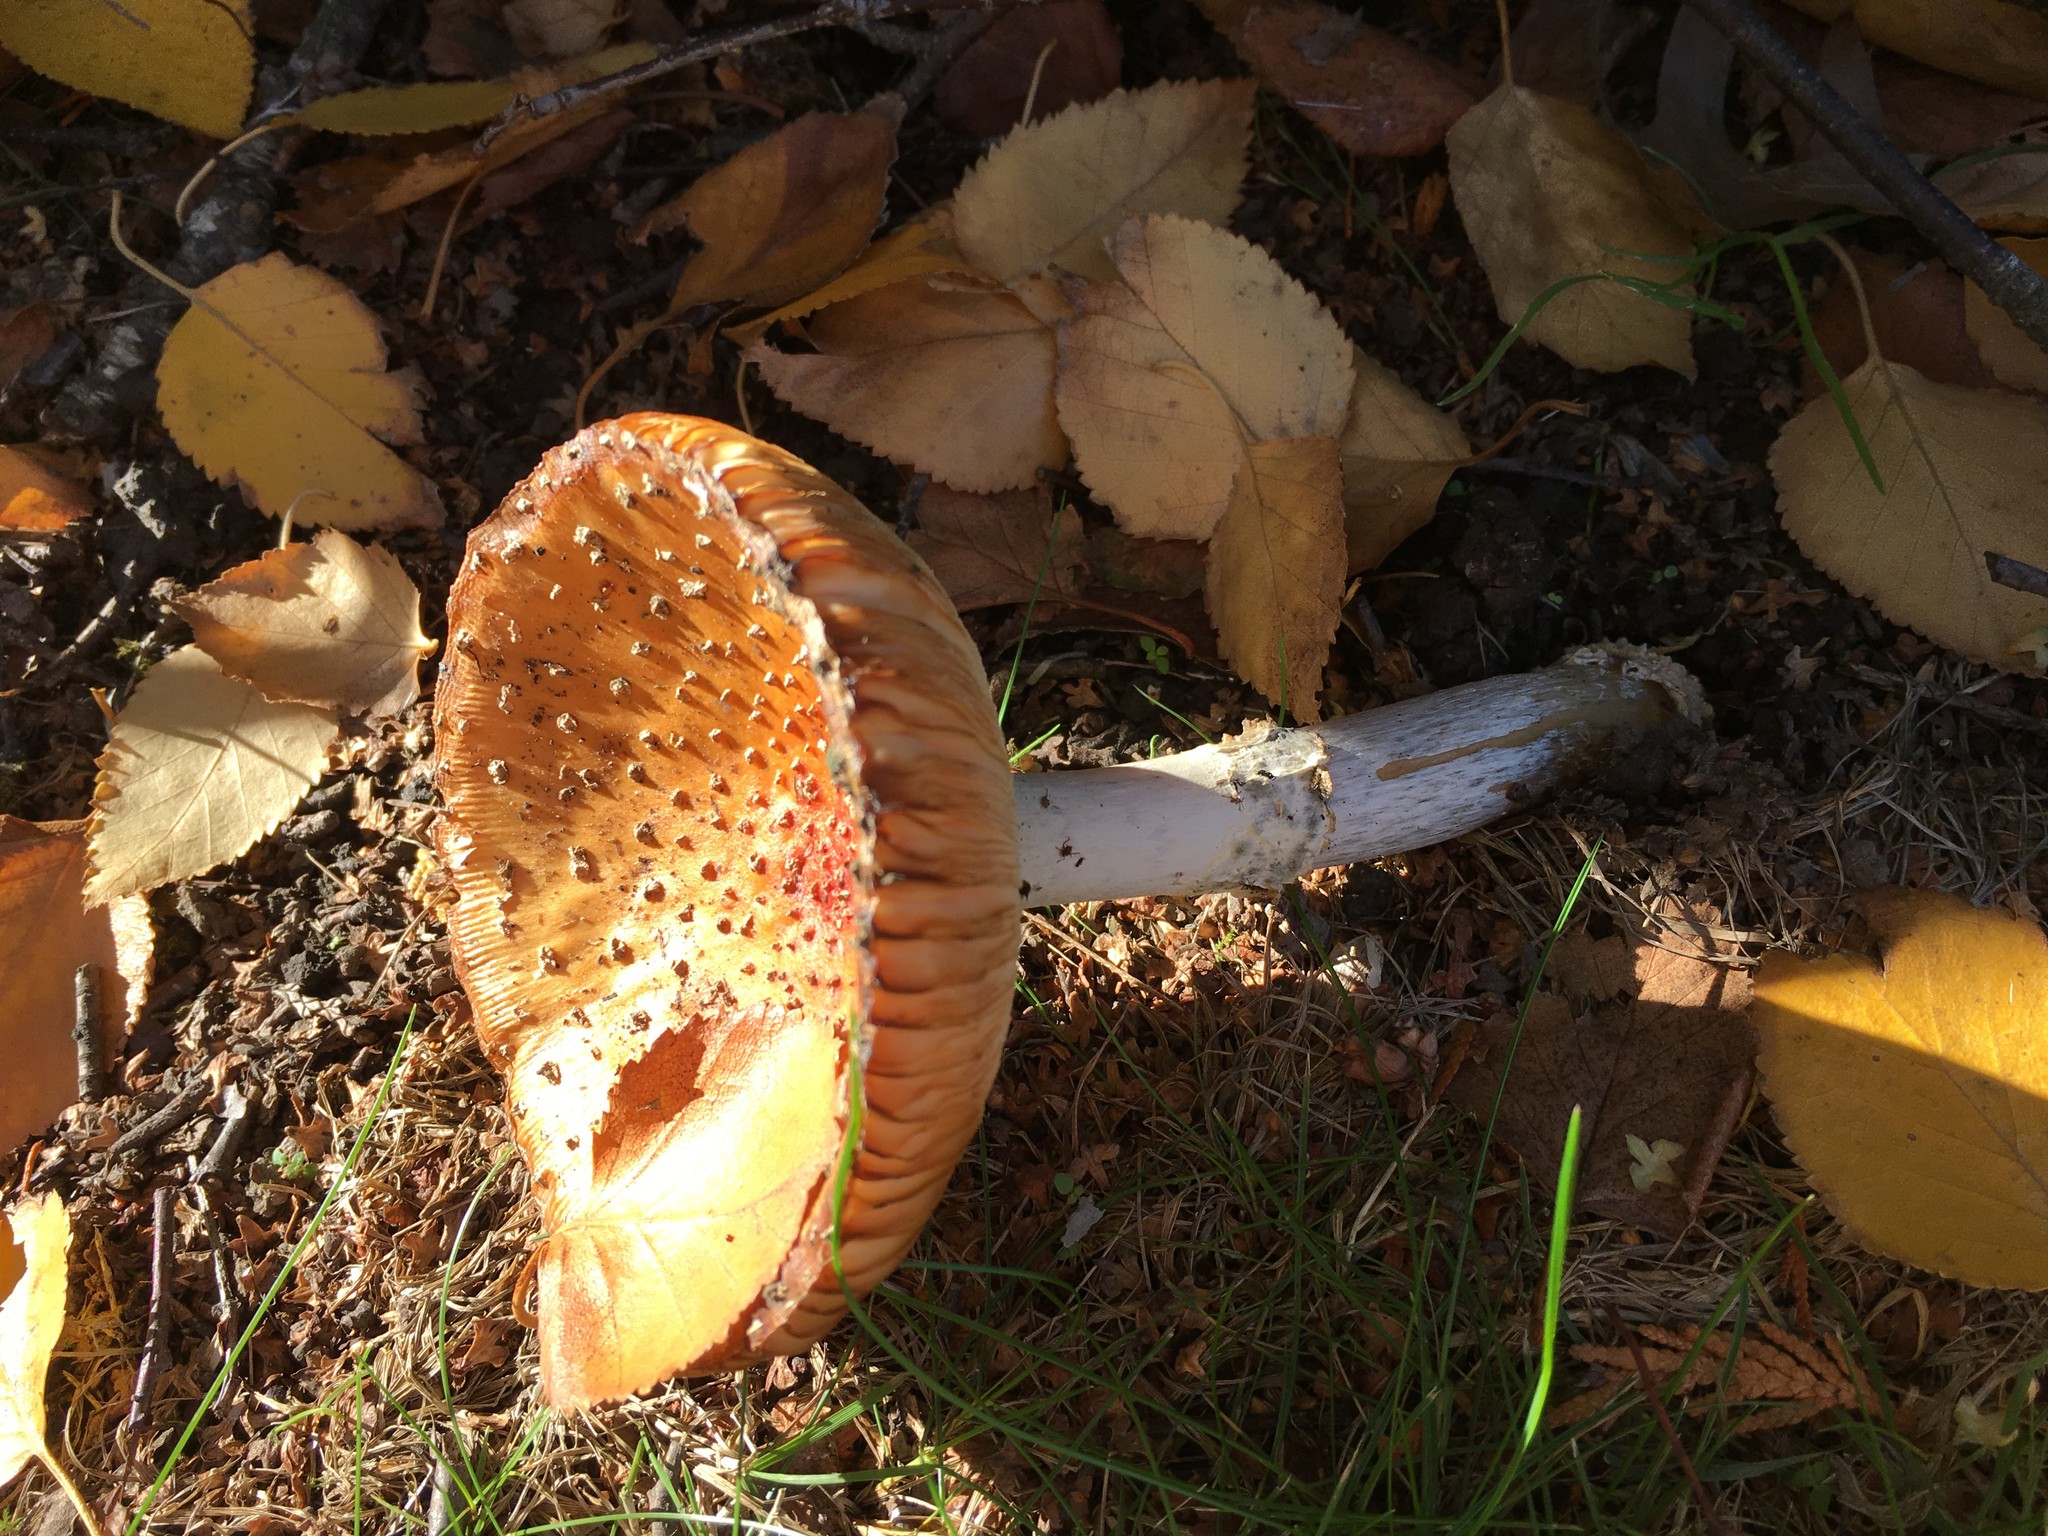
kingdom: Fungi
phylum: Basidiomycota
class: Agaricomycetes
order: Agaricales
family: Amanitaceae
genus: Amanita
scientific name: Amanita muscaria
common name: Fly agaric
